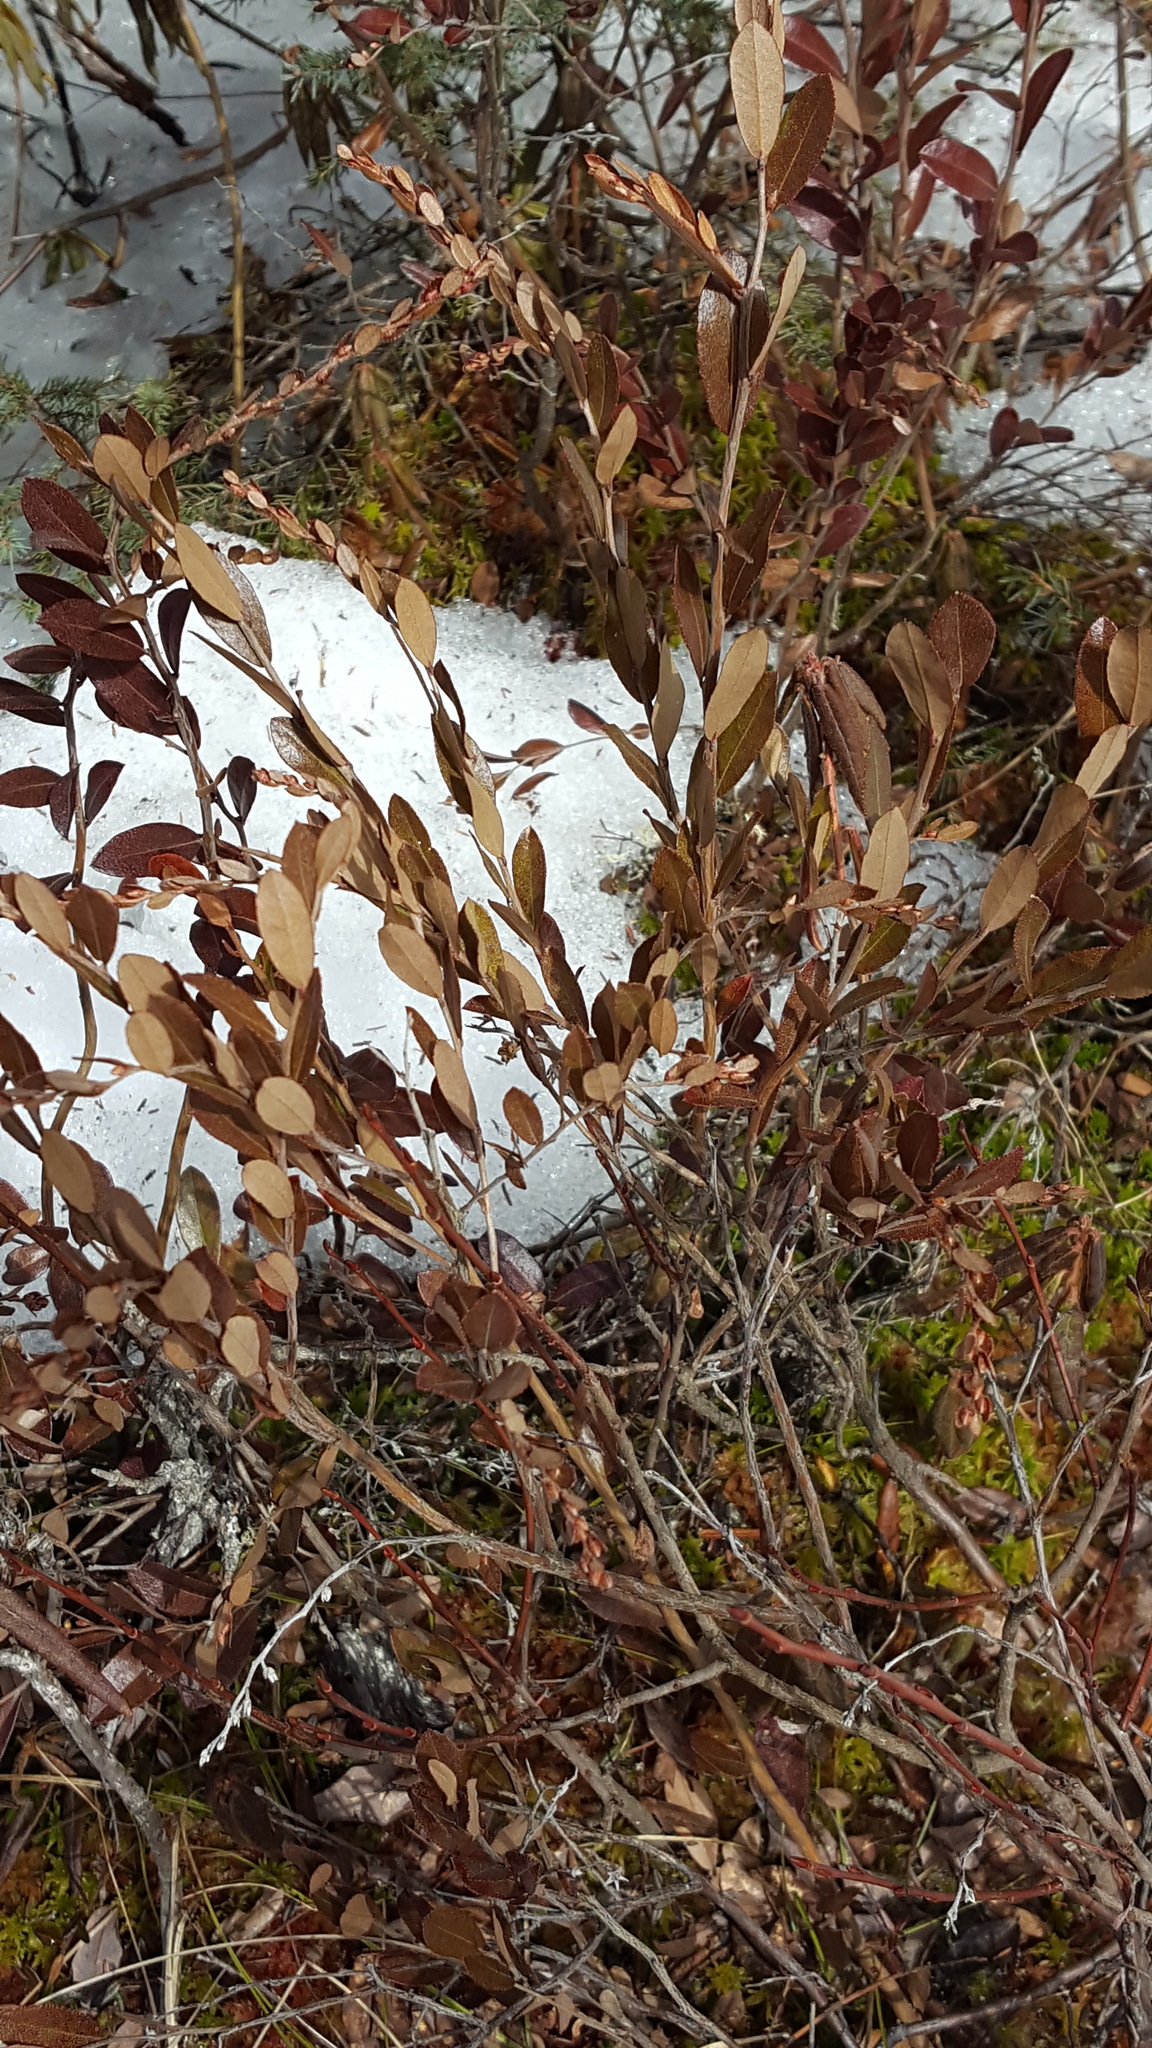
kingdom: Plantae
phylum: Tracheophyta
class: Magnoliopsida
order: Ericales
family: Ericaceae
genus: Chamaedaphne
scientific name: Chamaedaphne calyculata
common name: Leatherleaf
